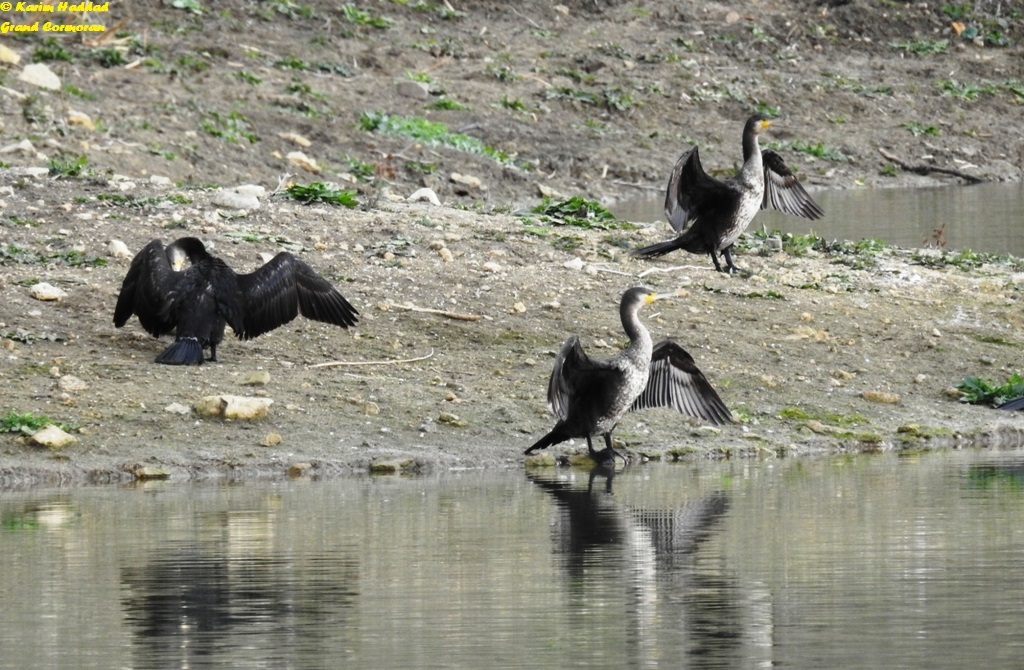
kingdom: Animalia
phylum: Chordata
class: Aves
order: Suliformes
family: Phalacrocoracidae
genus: Phalacrocorax
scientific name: Phalacrocorax carbo
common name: Great cormorant
